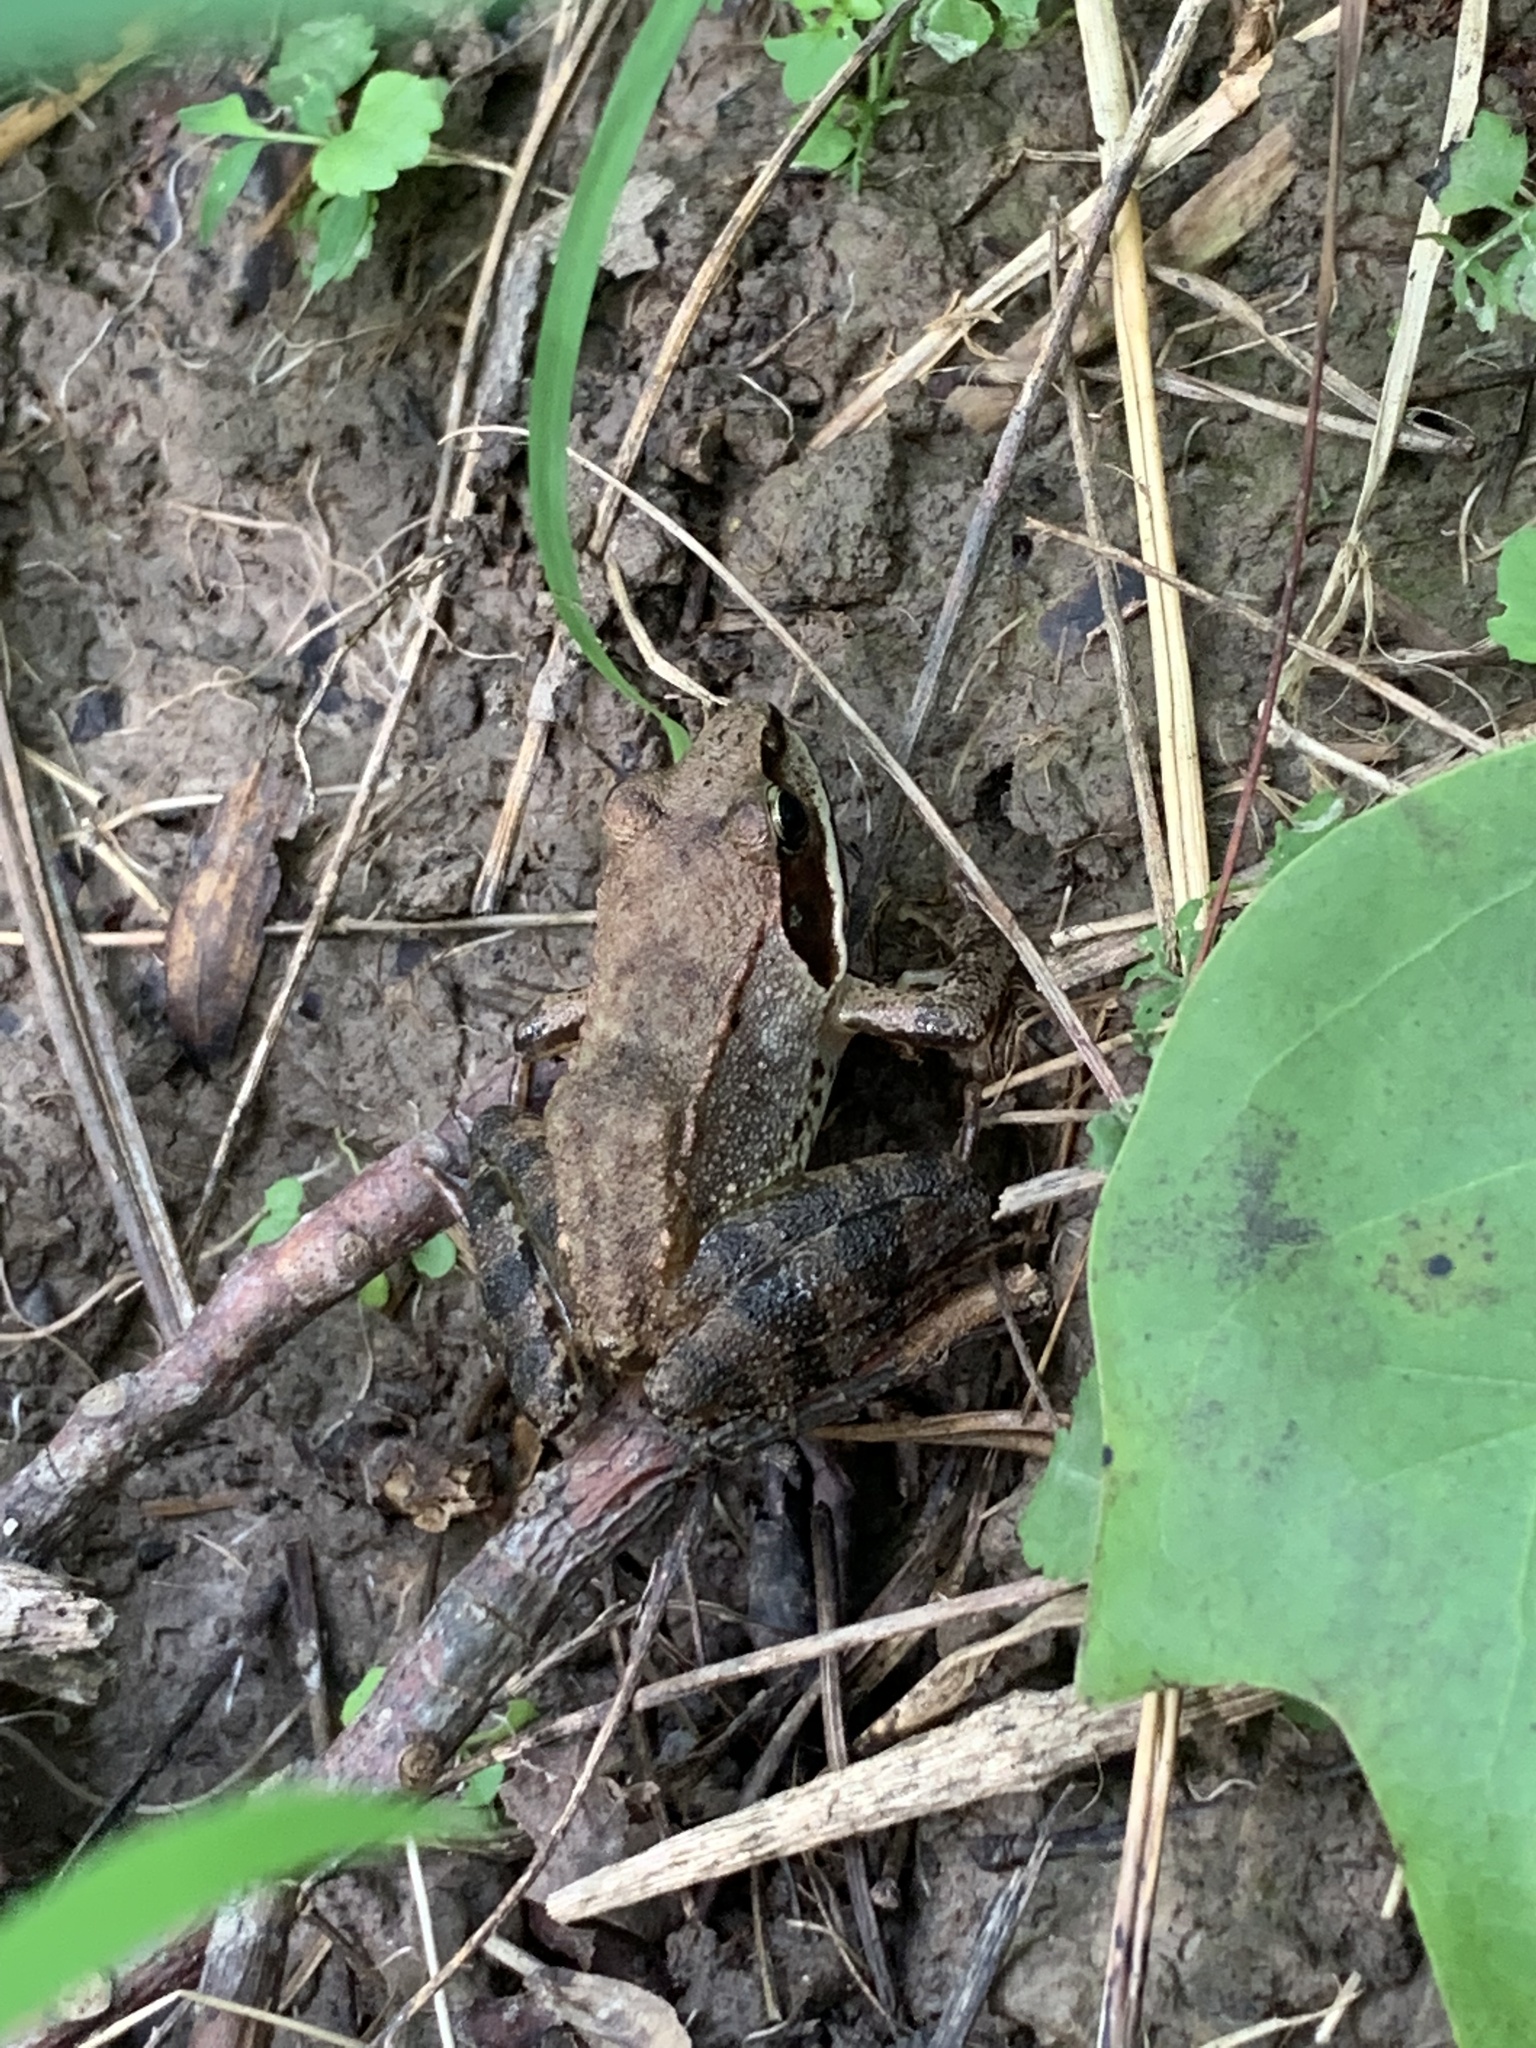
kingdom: Animalia
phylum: Chordata
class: Amphibia
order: Anura
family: Ranidae
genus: Lithobates
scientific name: Lithobates sylvaticus
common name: Wood frog
